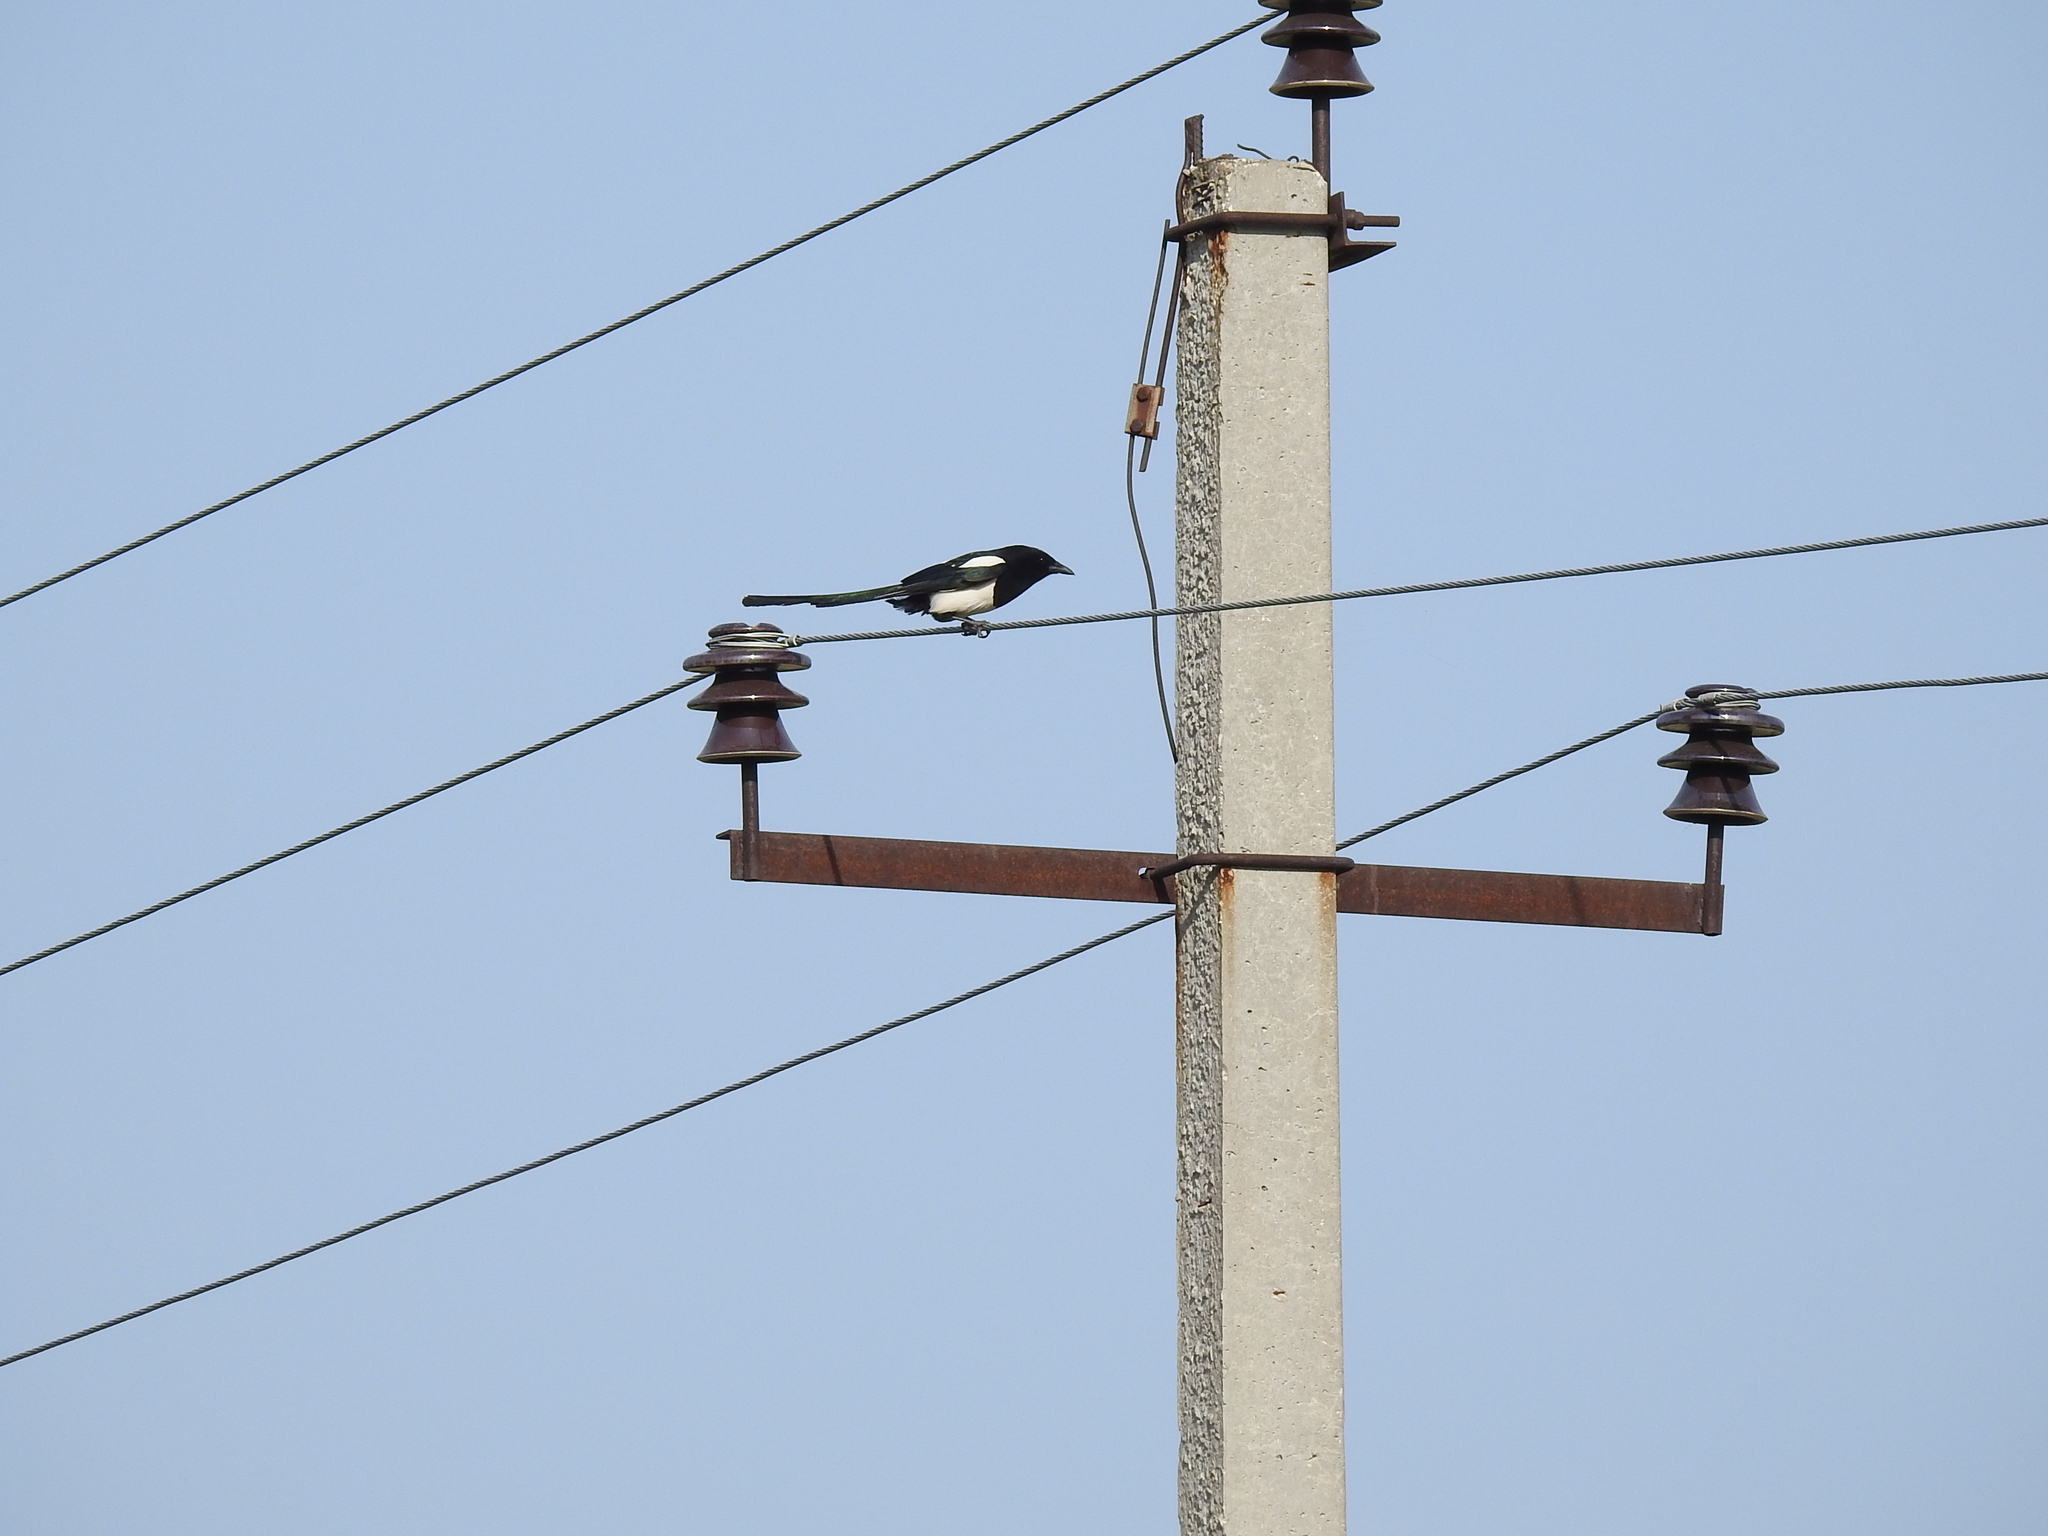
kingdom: Animalia
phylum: Chordata
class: Aves
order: Passeriformes
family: Corvidae
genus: Pica
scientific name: Pica pica
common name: Eurasian magpie
